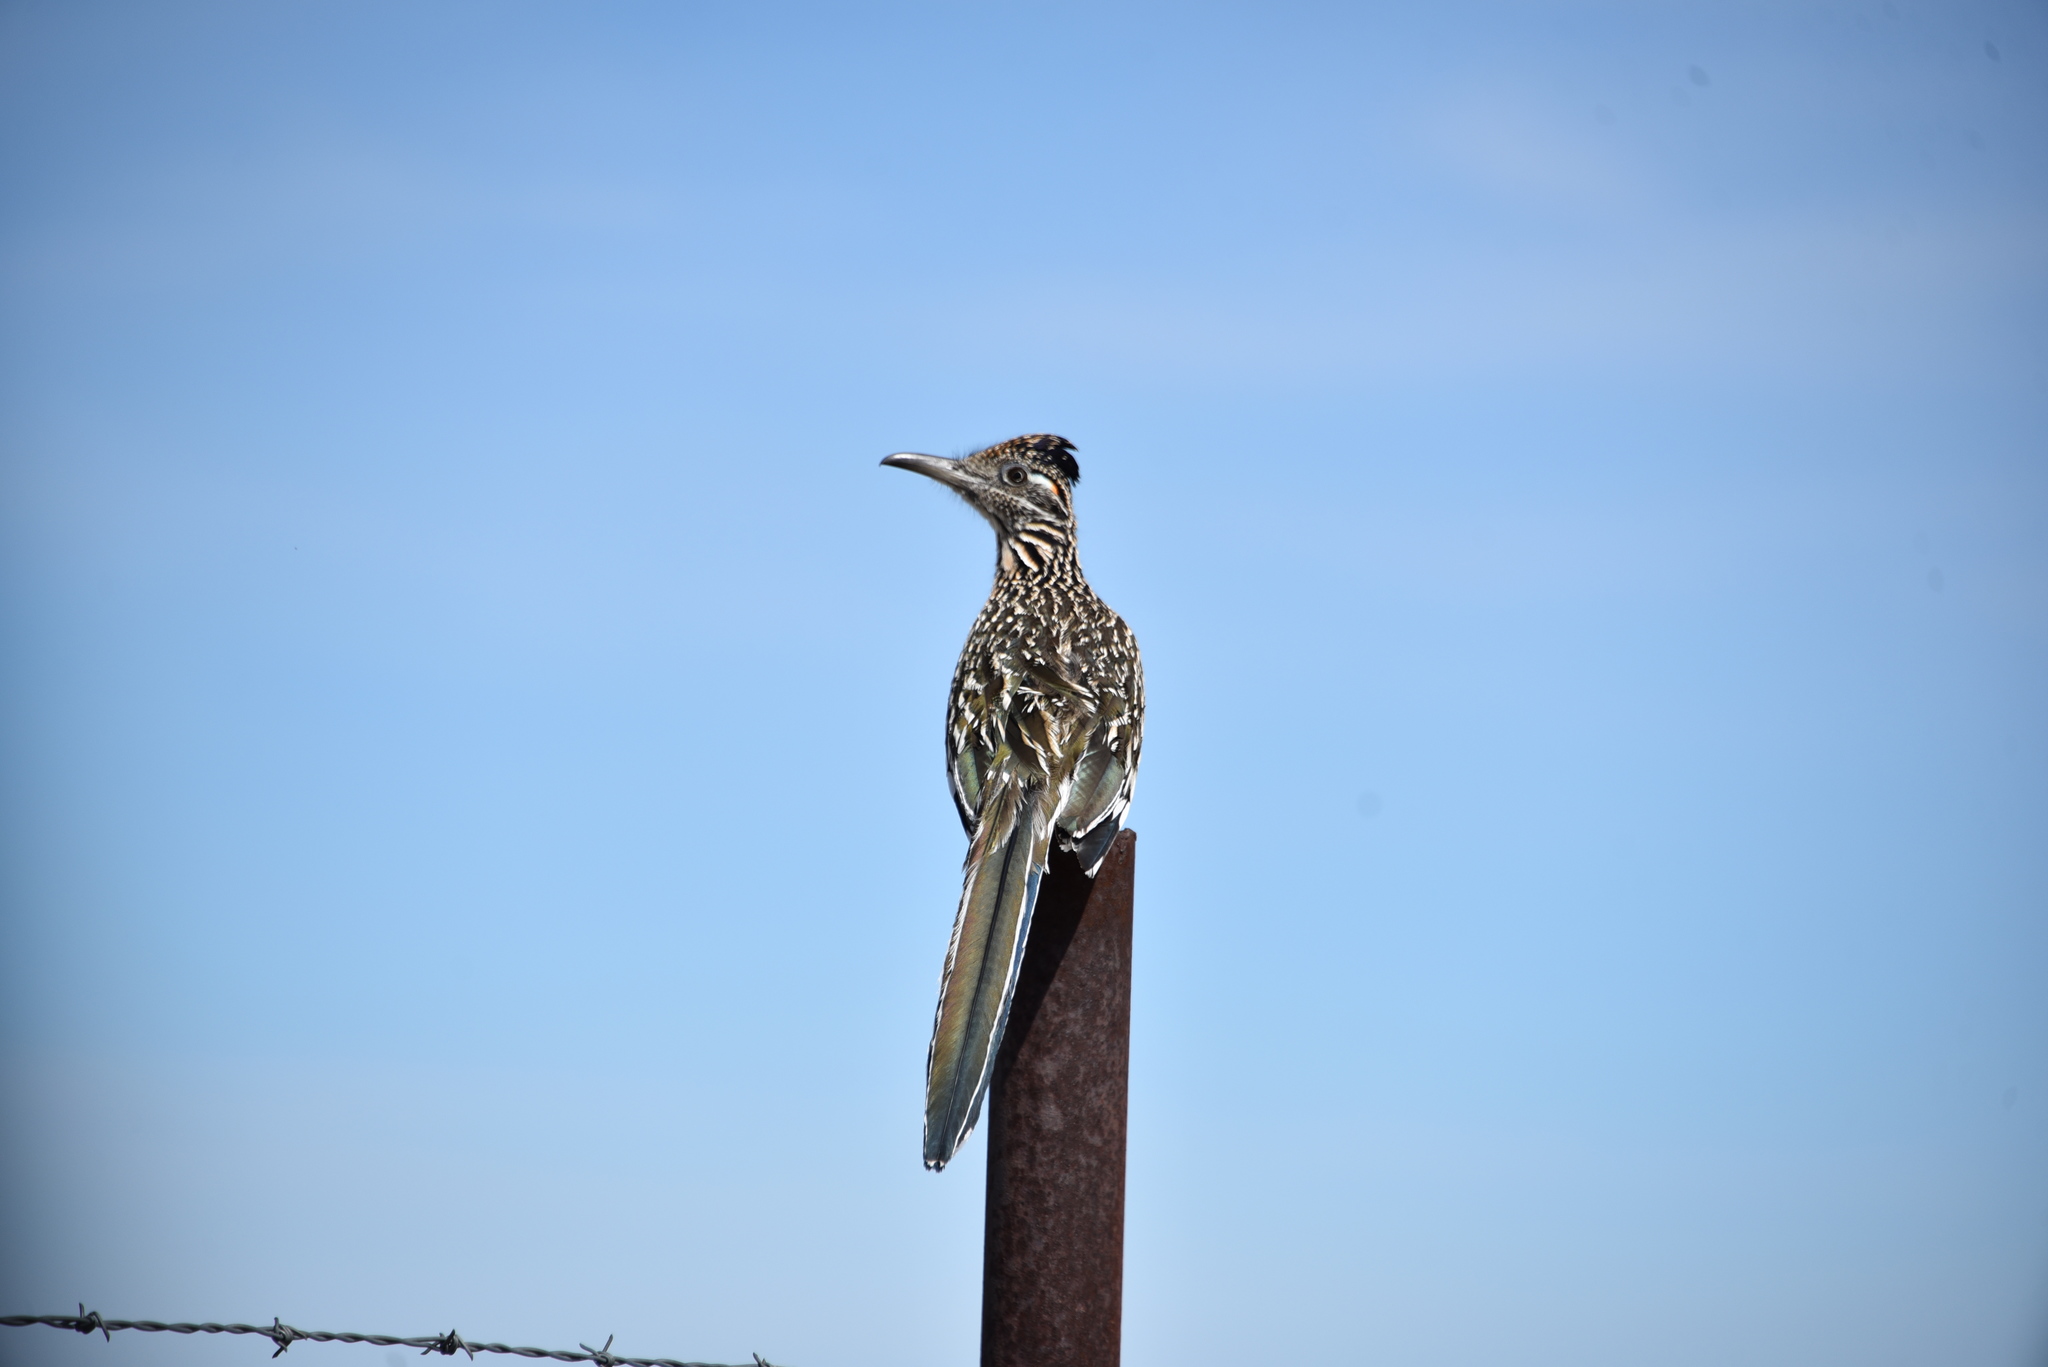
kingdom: Animalia
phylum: Chordata
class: Aves
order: Cuculiformes
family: Cuculidae
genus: Geococcyx
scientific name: Geococcyx californianus
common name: Greater roadrunner
